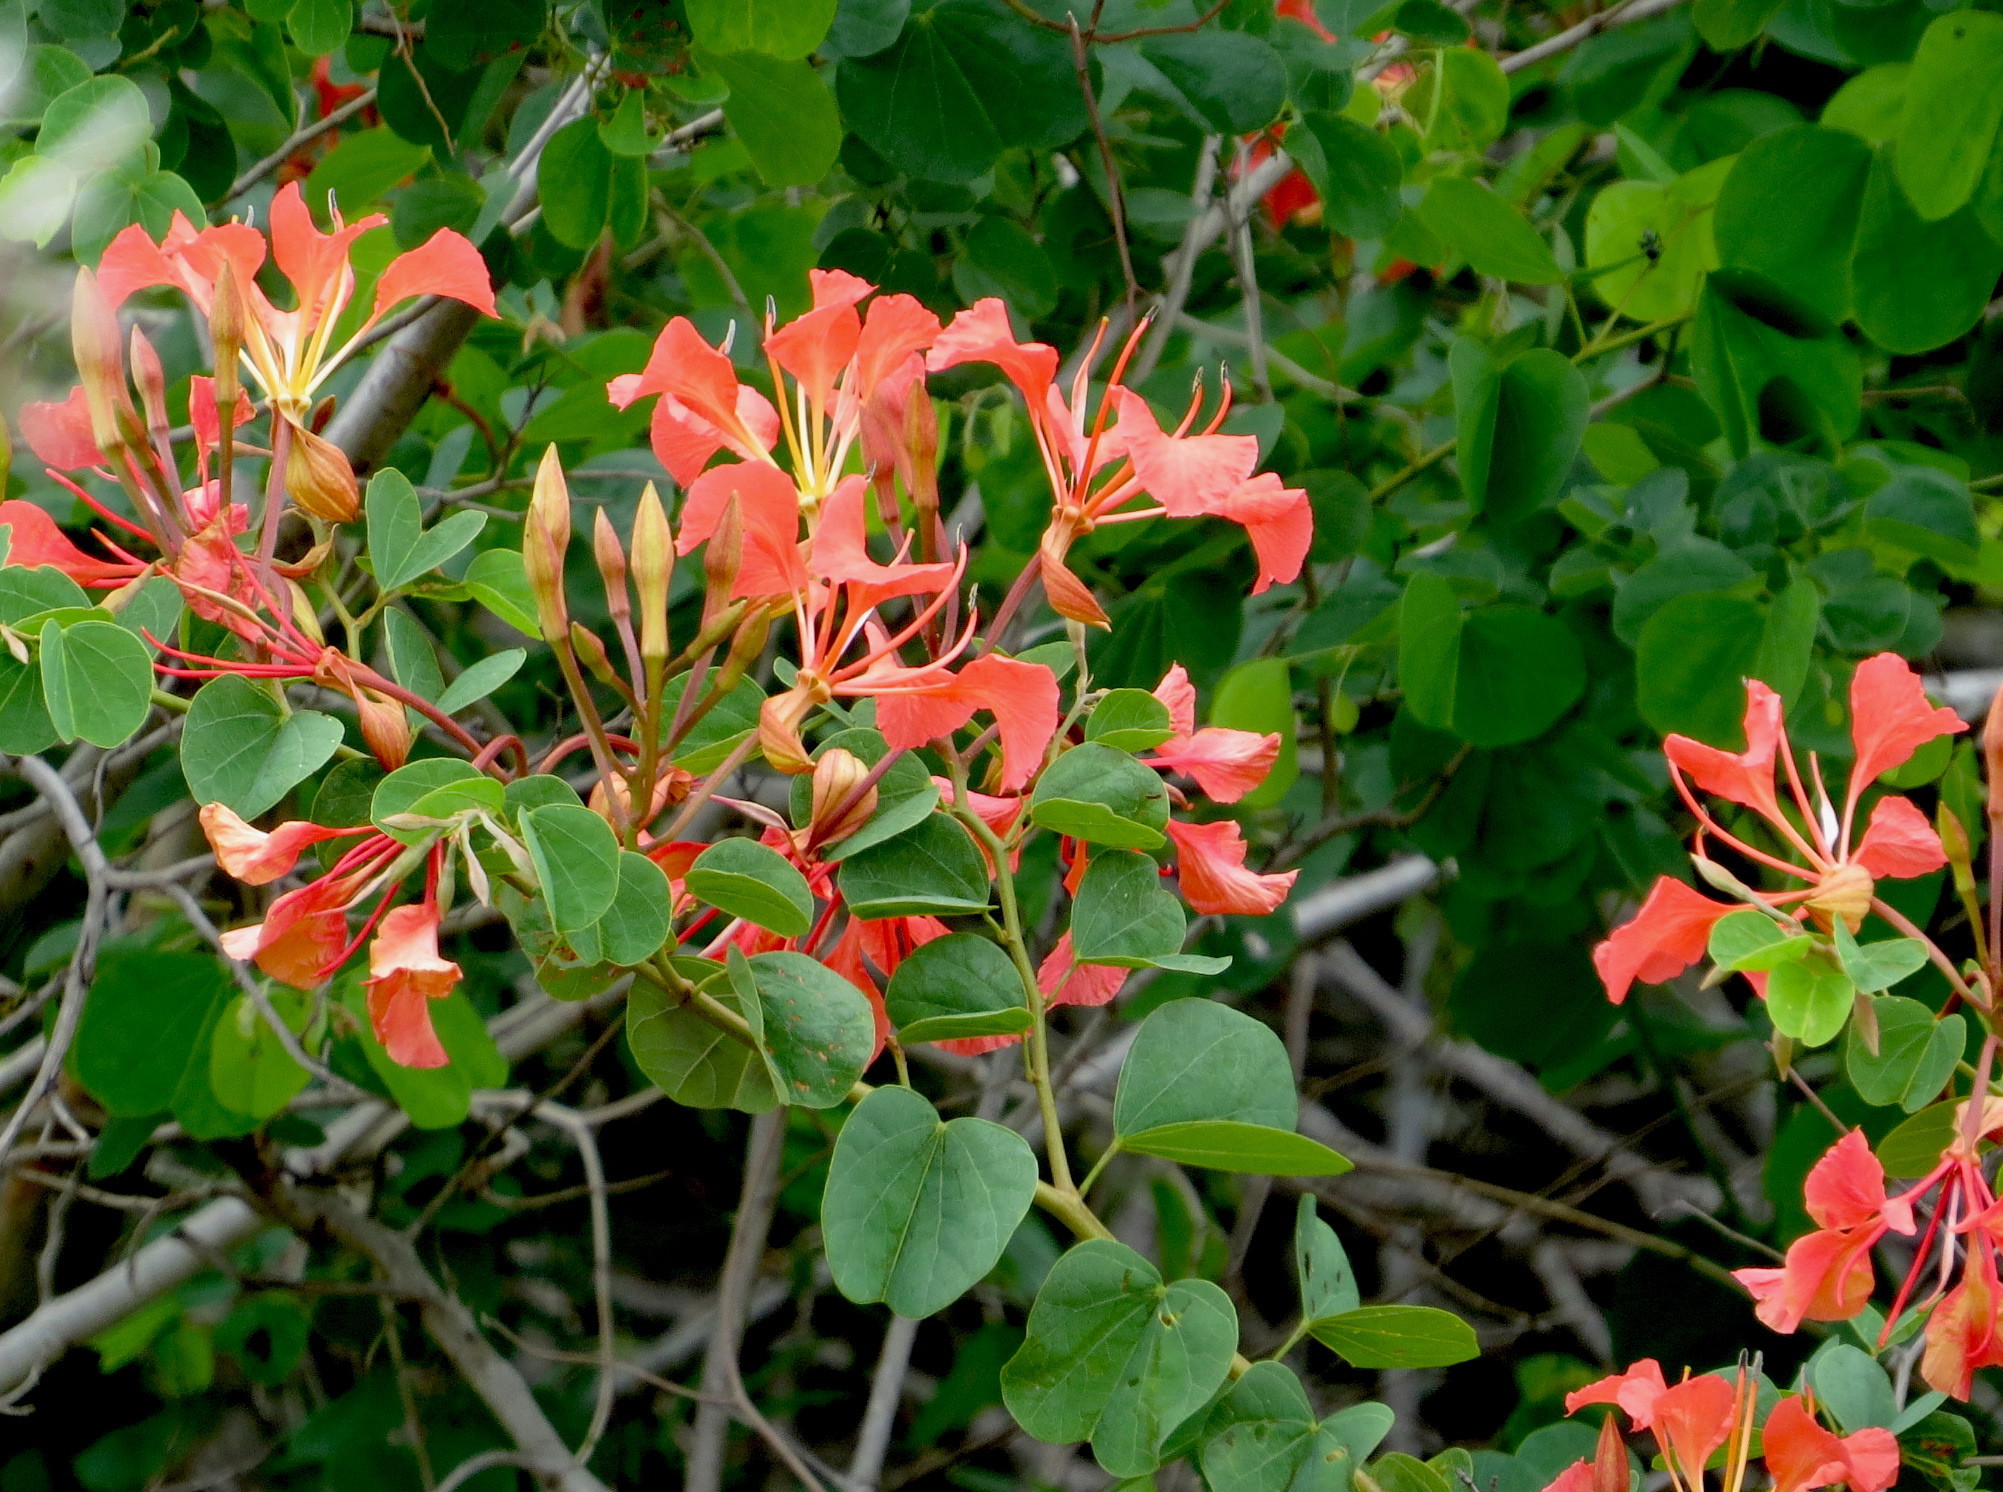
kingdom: Plantae
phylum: Tracheophyta
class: Magnoliopsida
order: Fabales
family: Fabaceae
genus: Bauhinia
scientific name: Bauhinia galpinii
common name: African plume
